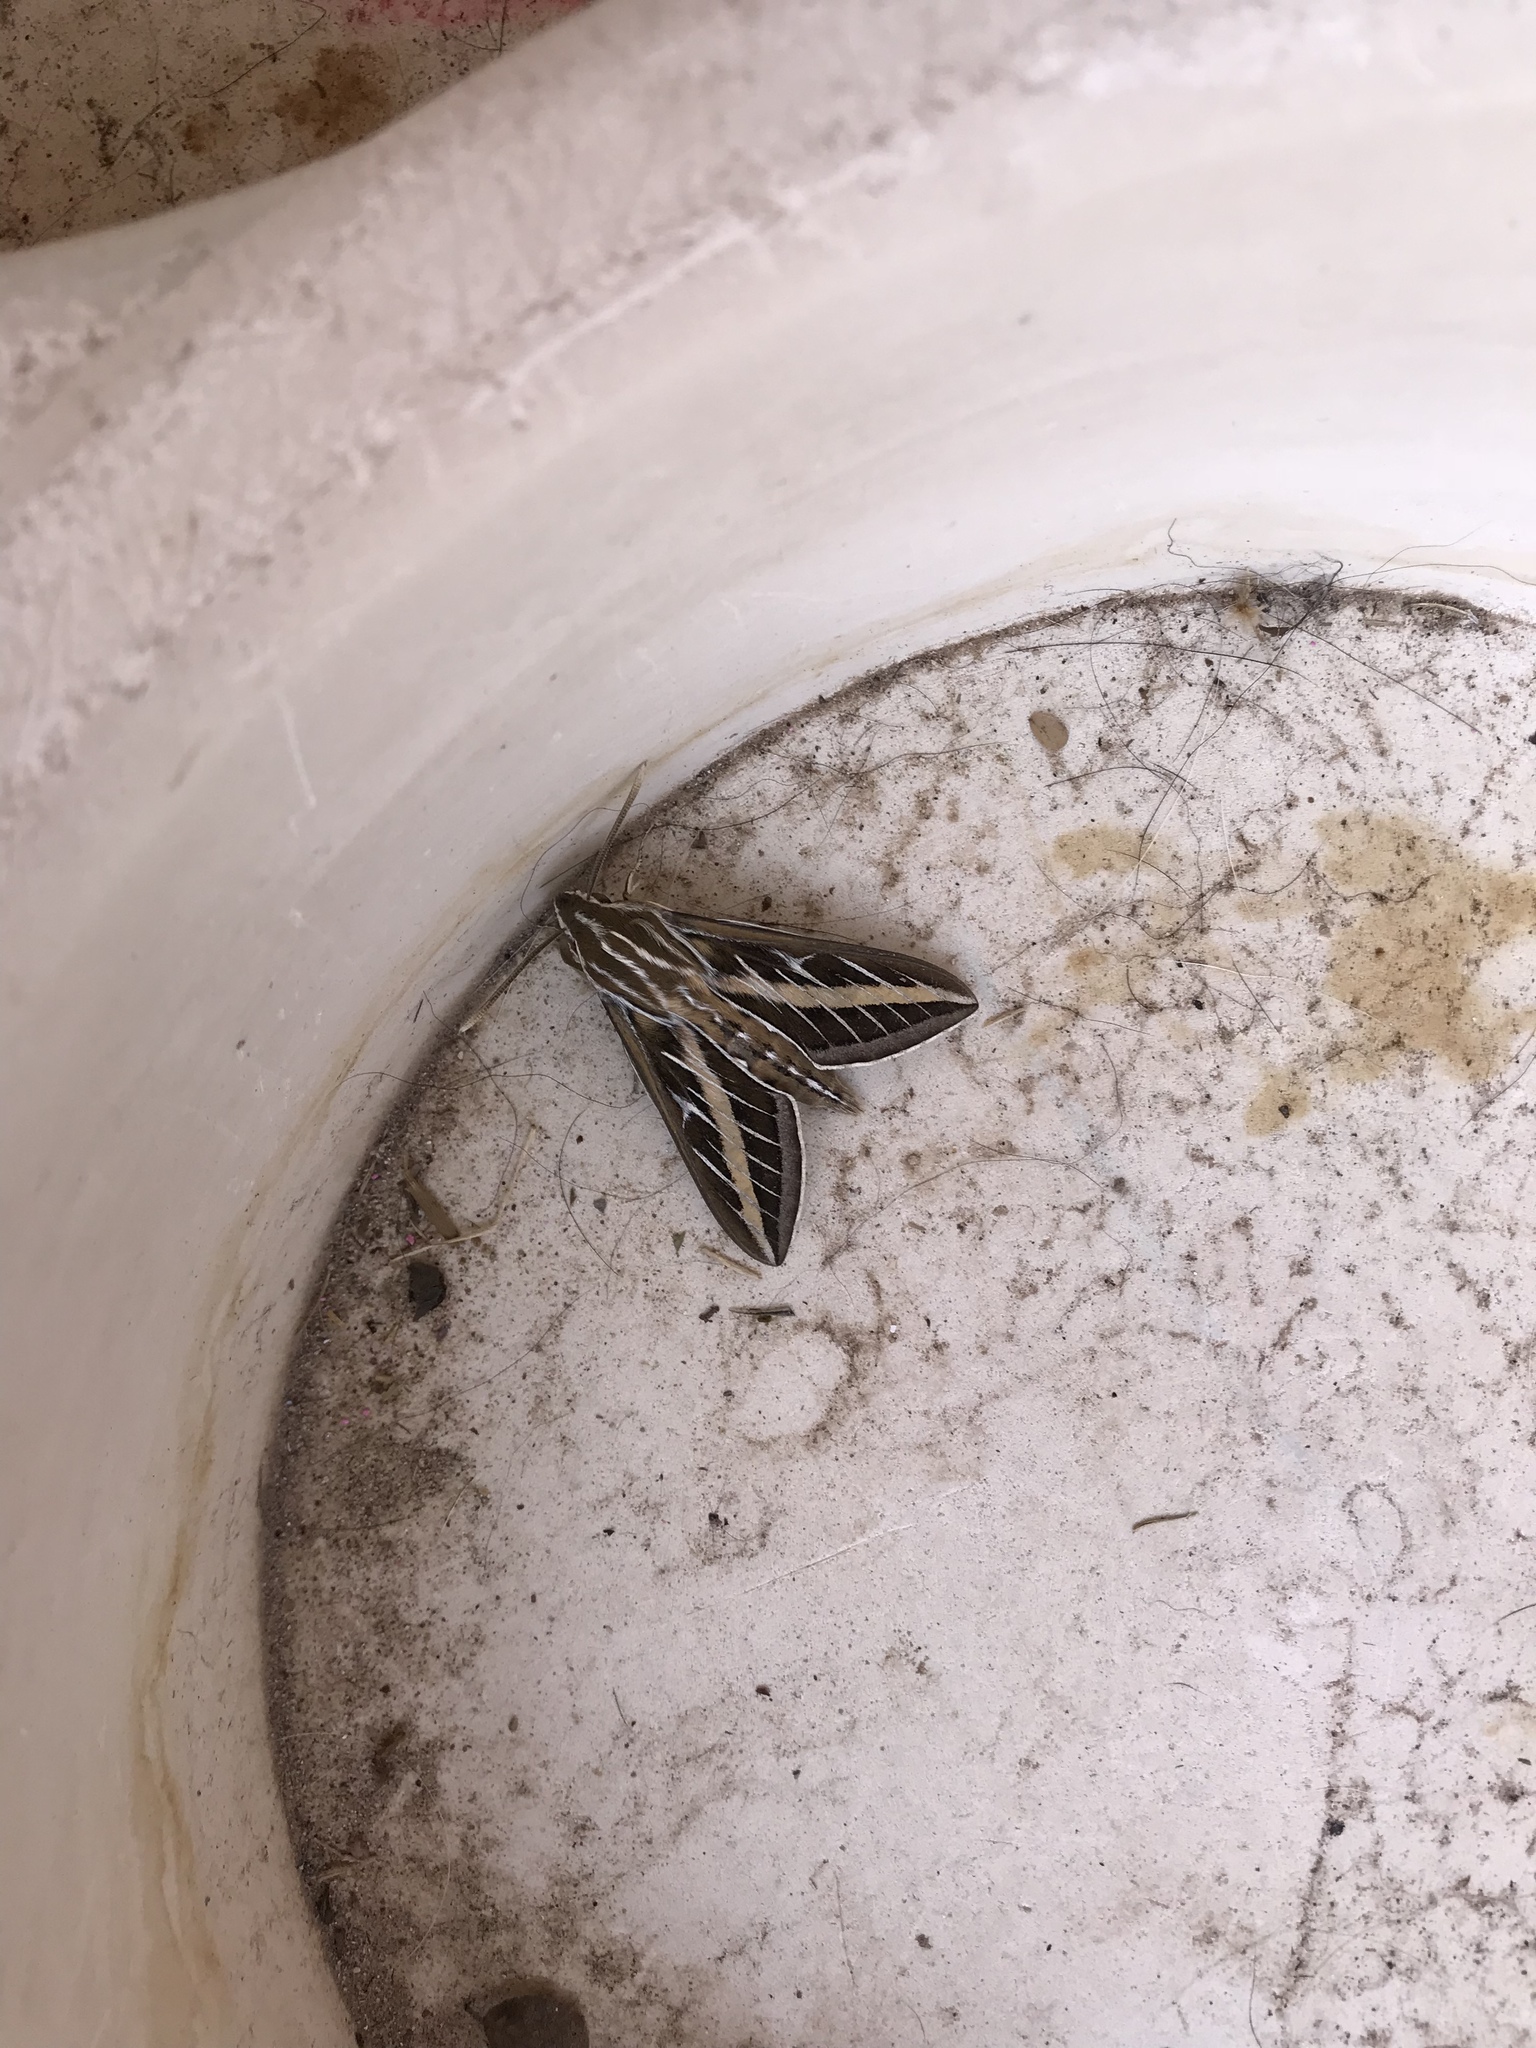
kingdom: Animalia
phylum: Arthropoda
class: Insecta
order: Lepidoptera
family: Sphingidae
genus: Hyles
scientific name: Hyles lineata
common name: White-lined sphinx
